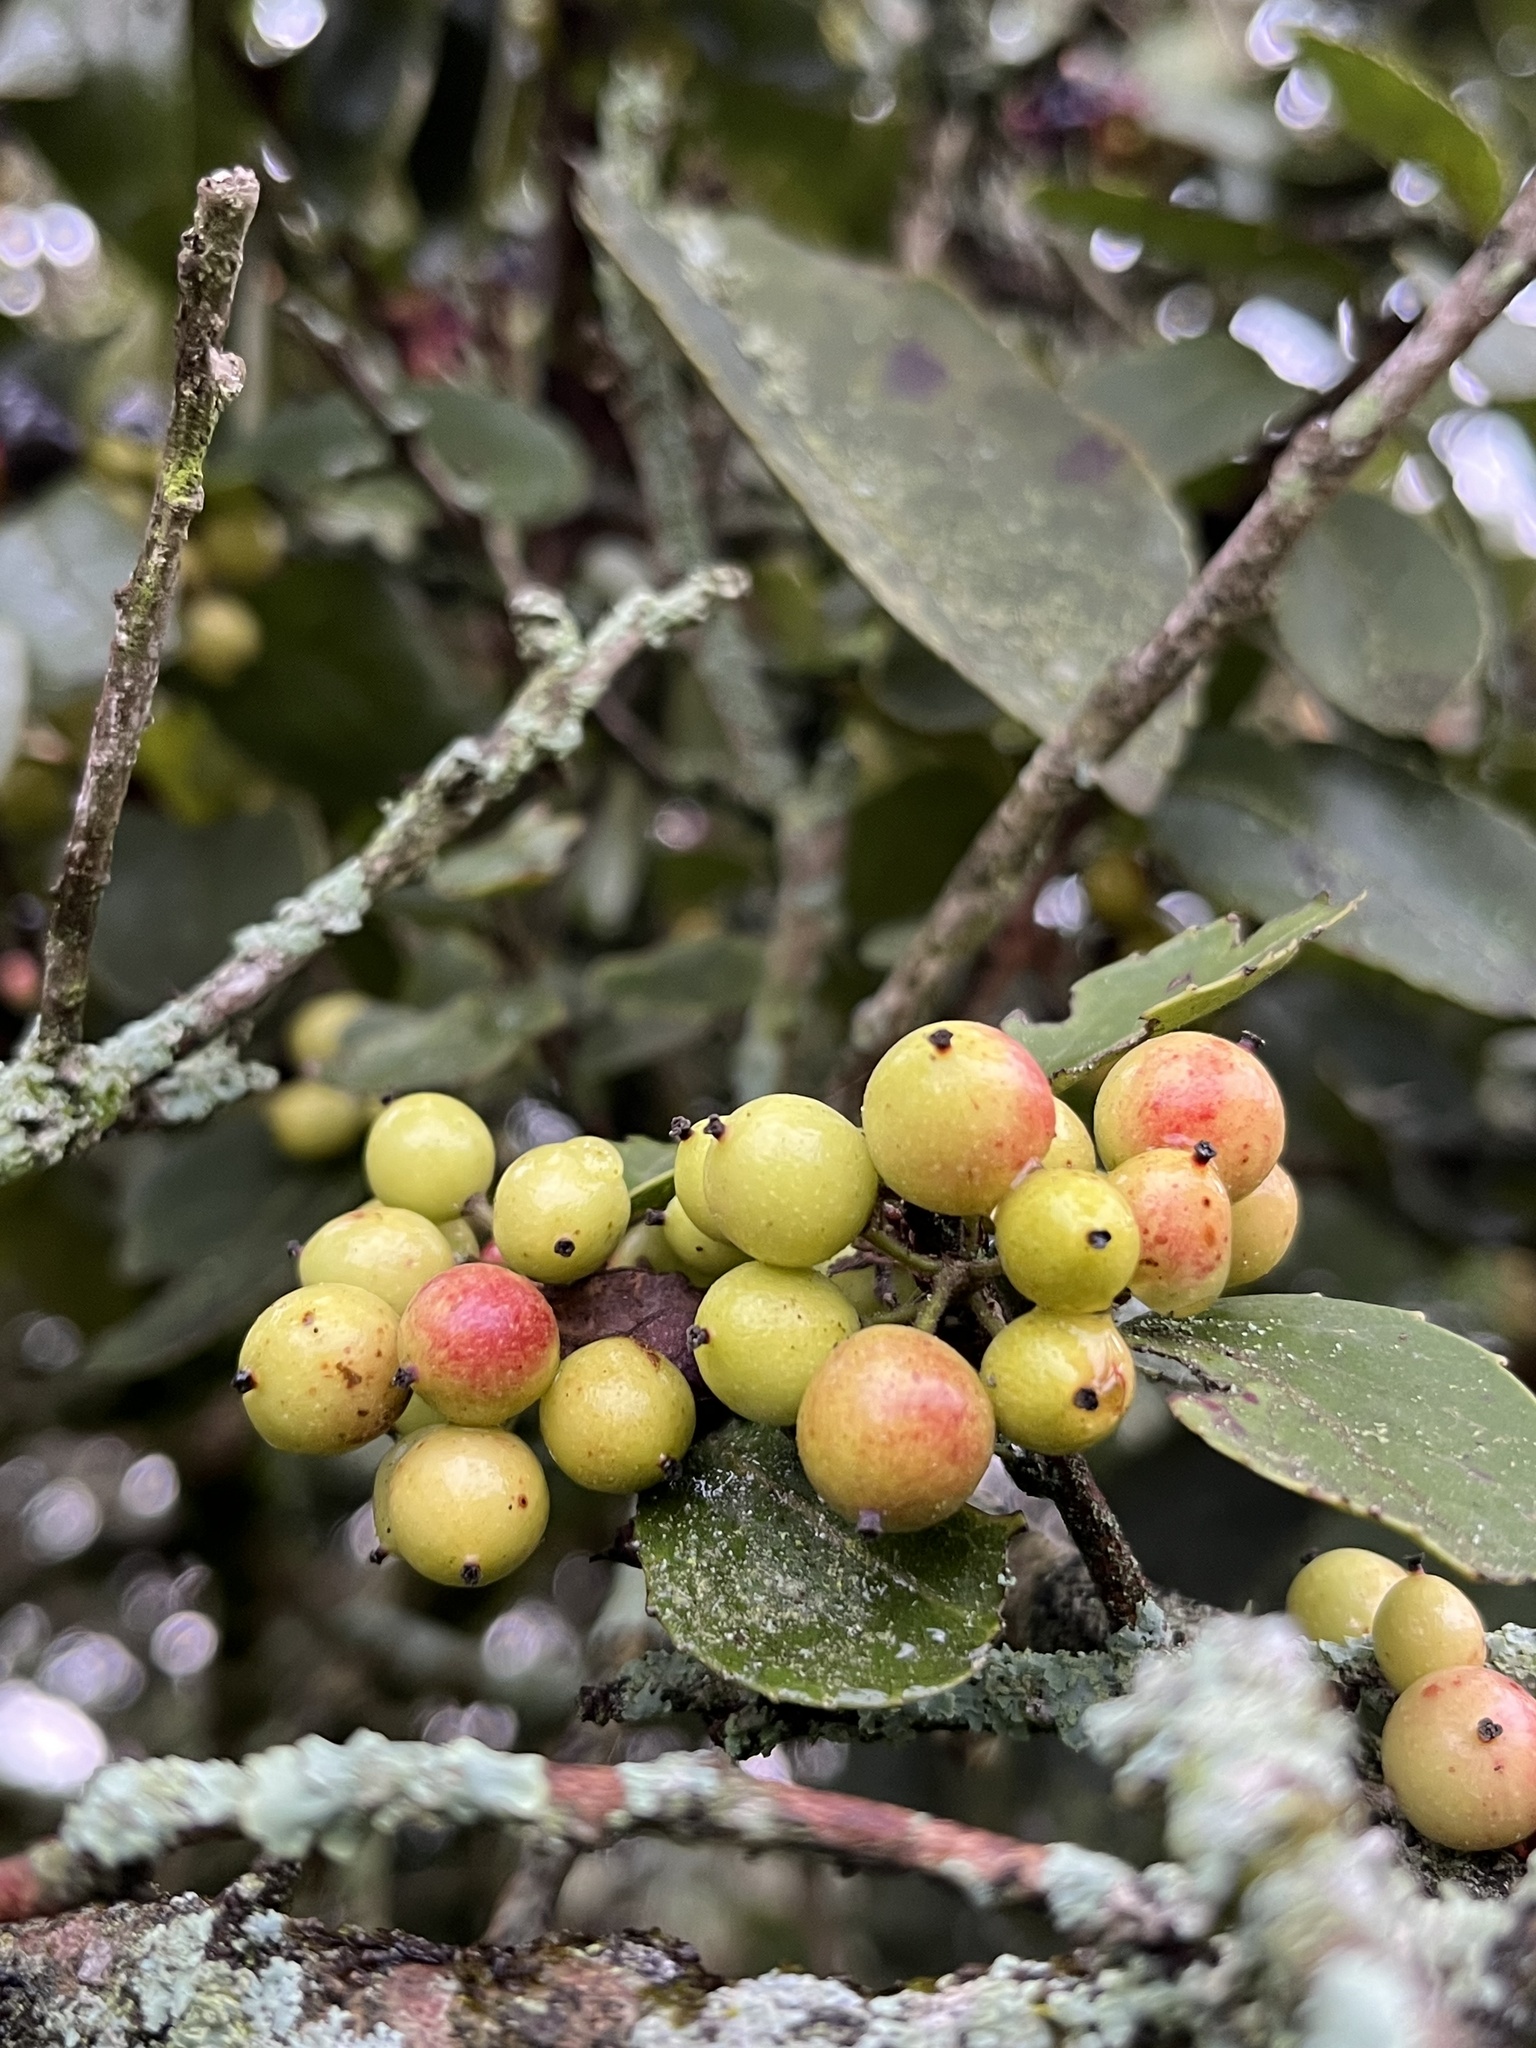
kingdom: Plantae
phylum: Tracheophyta
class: Magnoliopsida
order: Malpighiales
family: Salicaceae
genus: Xylosma
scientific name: Xylosma spiculifera
